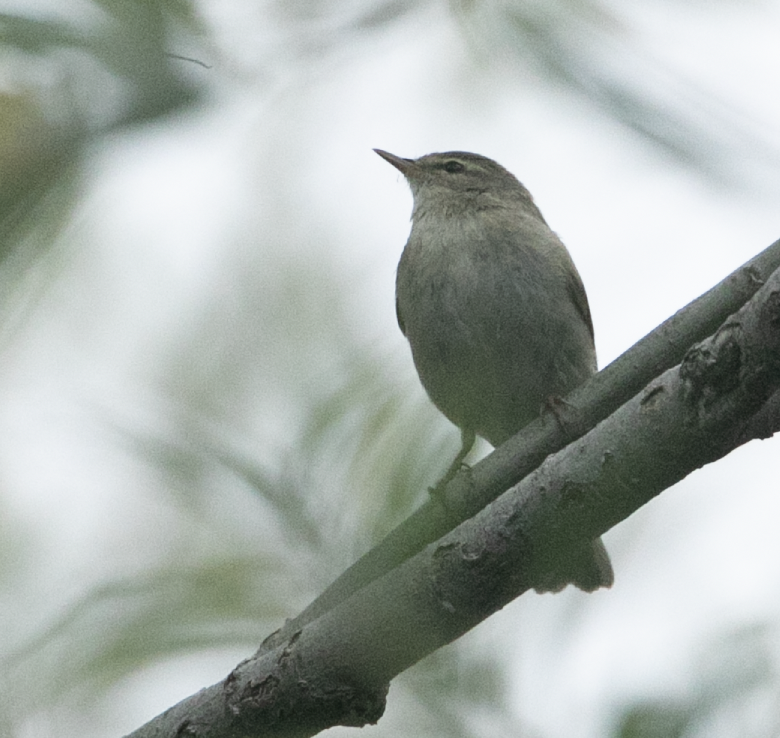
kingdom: Animalia
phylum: Chordata
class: Aves
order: Passeriformes
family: Phylloscopidae
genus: Phylloscopus
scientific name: Phylloscopus collybita
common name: Common chiffchaff
